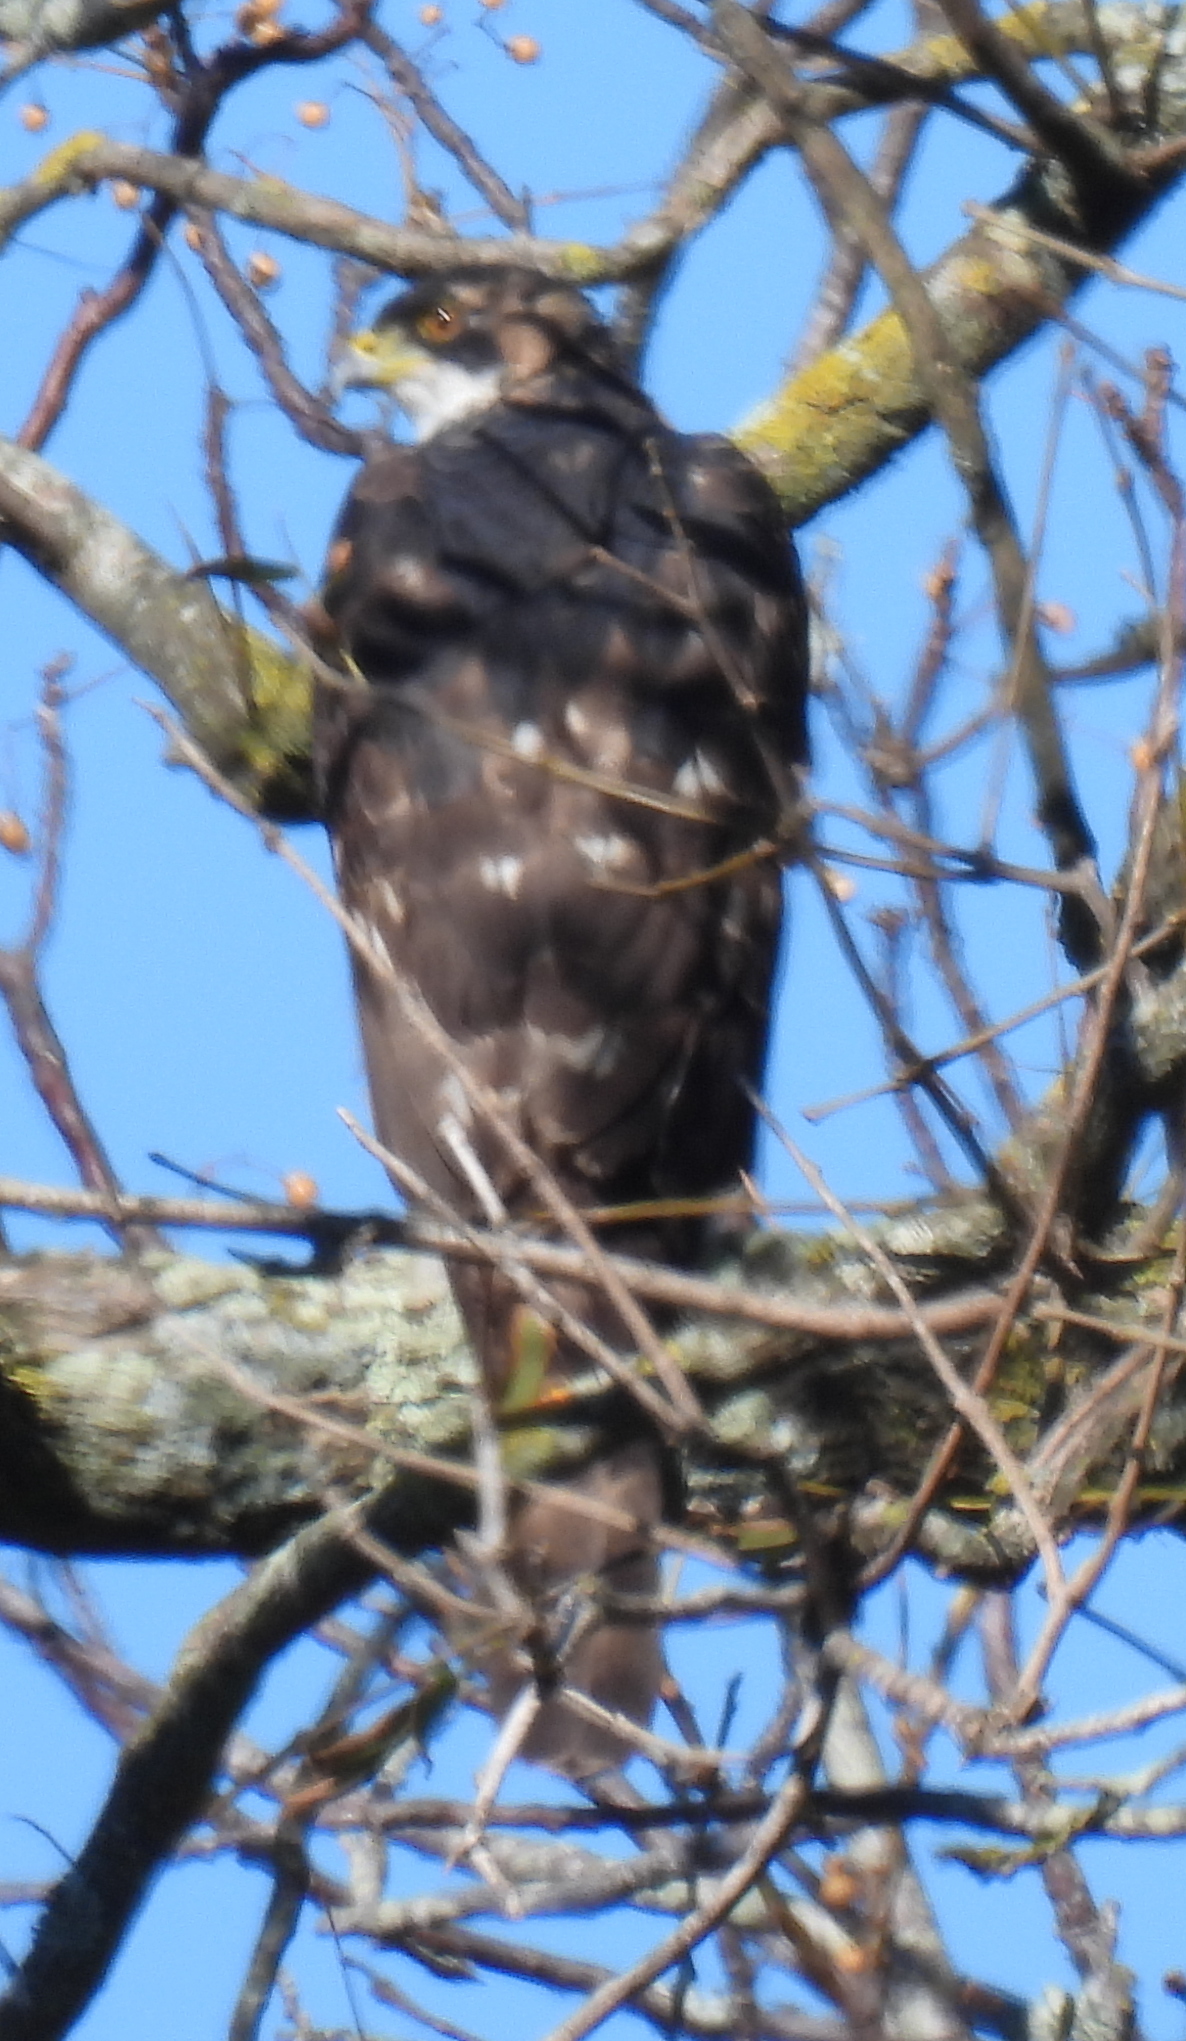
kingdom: Animalia
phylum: Chordata
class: Aves
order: Accipitriformes
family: Accipitridae
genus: Accipiter
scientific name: Accipiter melanoleucus
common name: Black sparrowhawk
